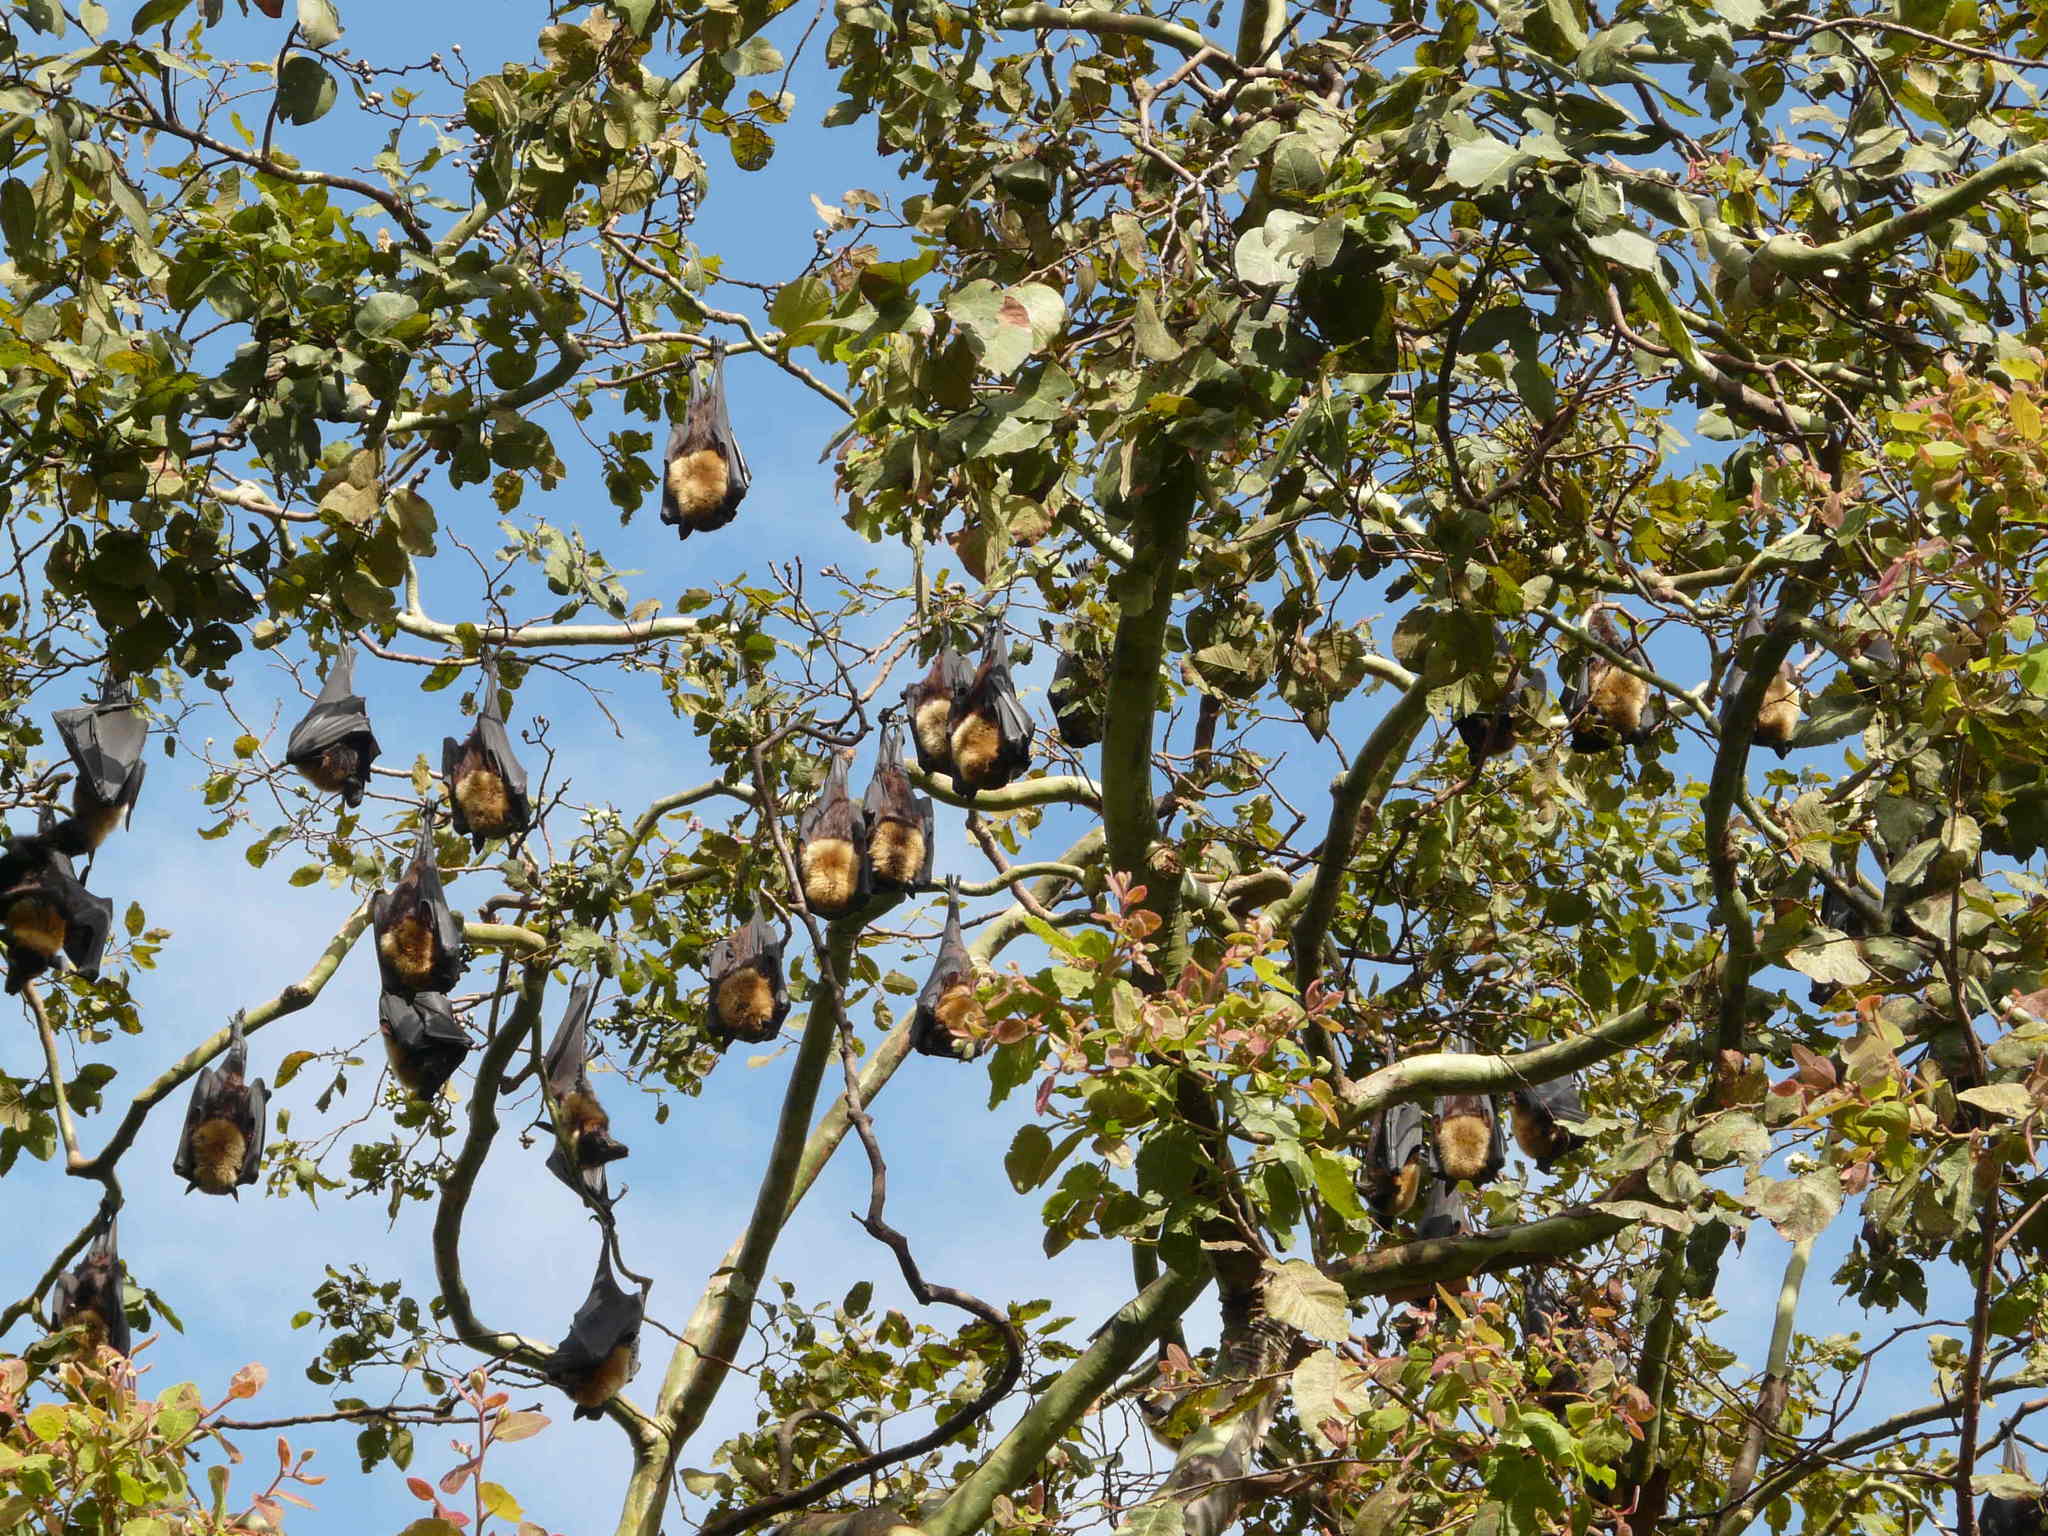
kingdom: Animalia
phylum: Chordata
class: Mammalia
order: Chiroptera
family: Pteropodidae
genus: Pteropus
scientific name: Pteropus conspicillatus
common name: Spectacled flying fox
